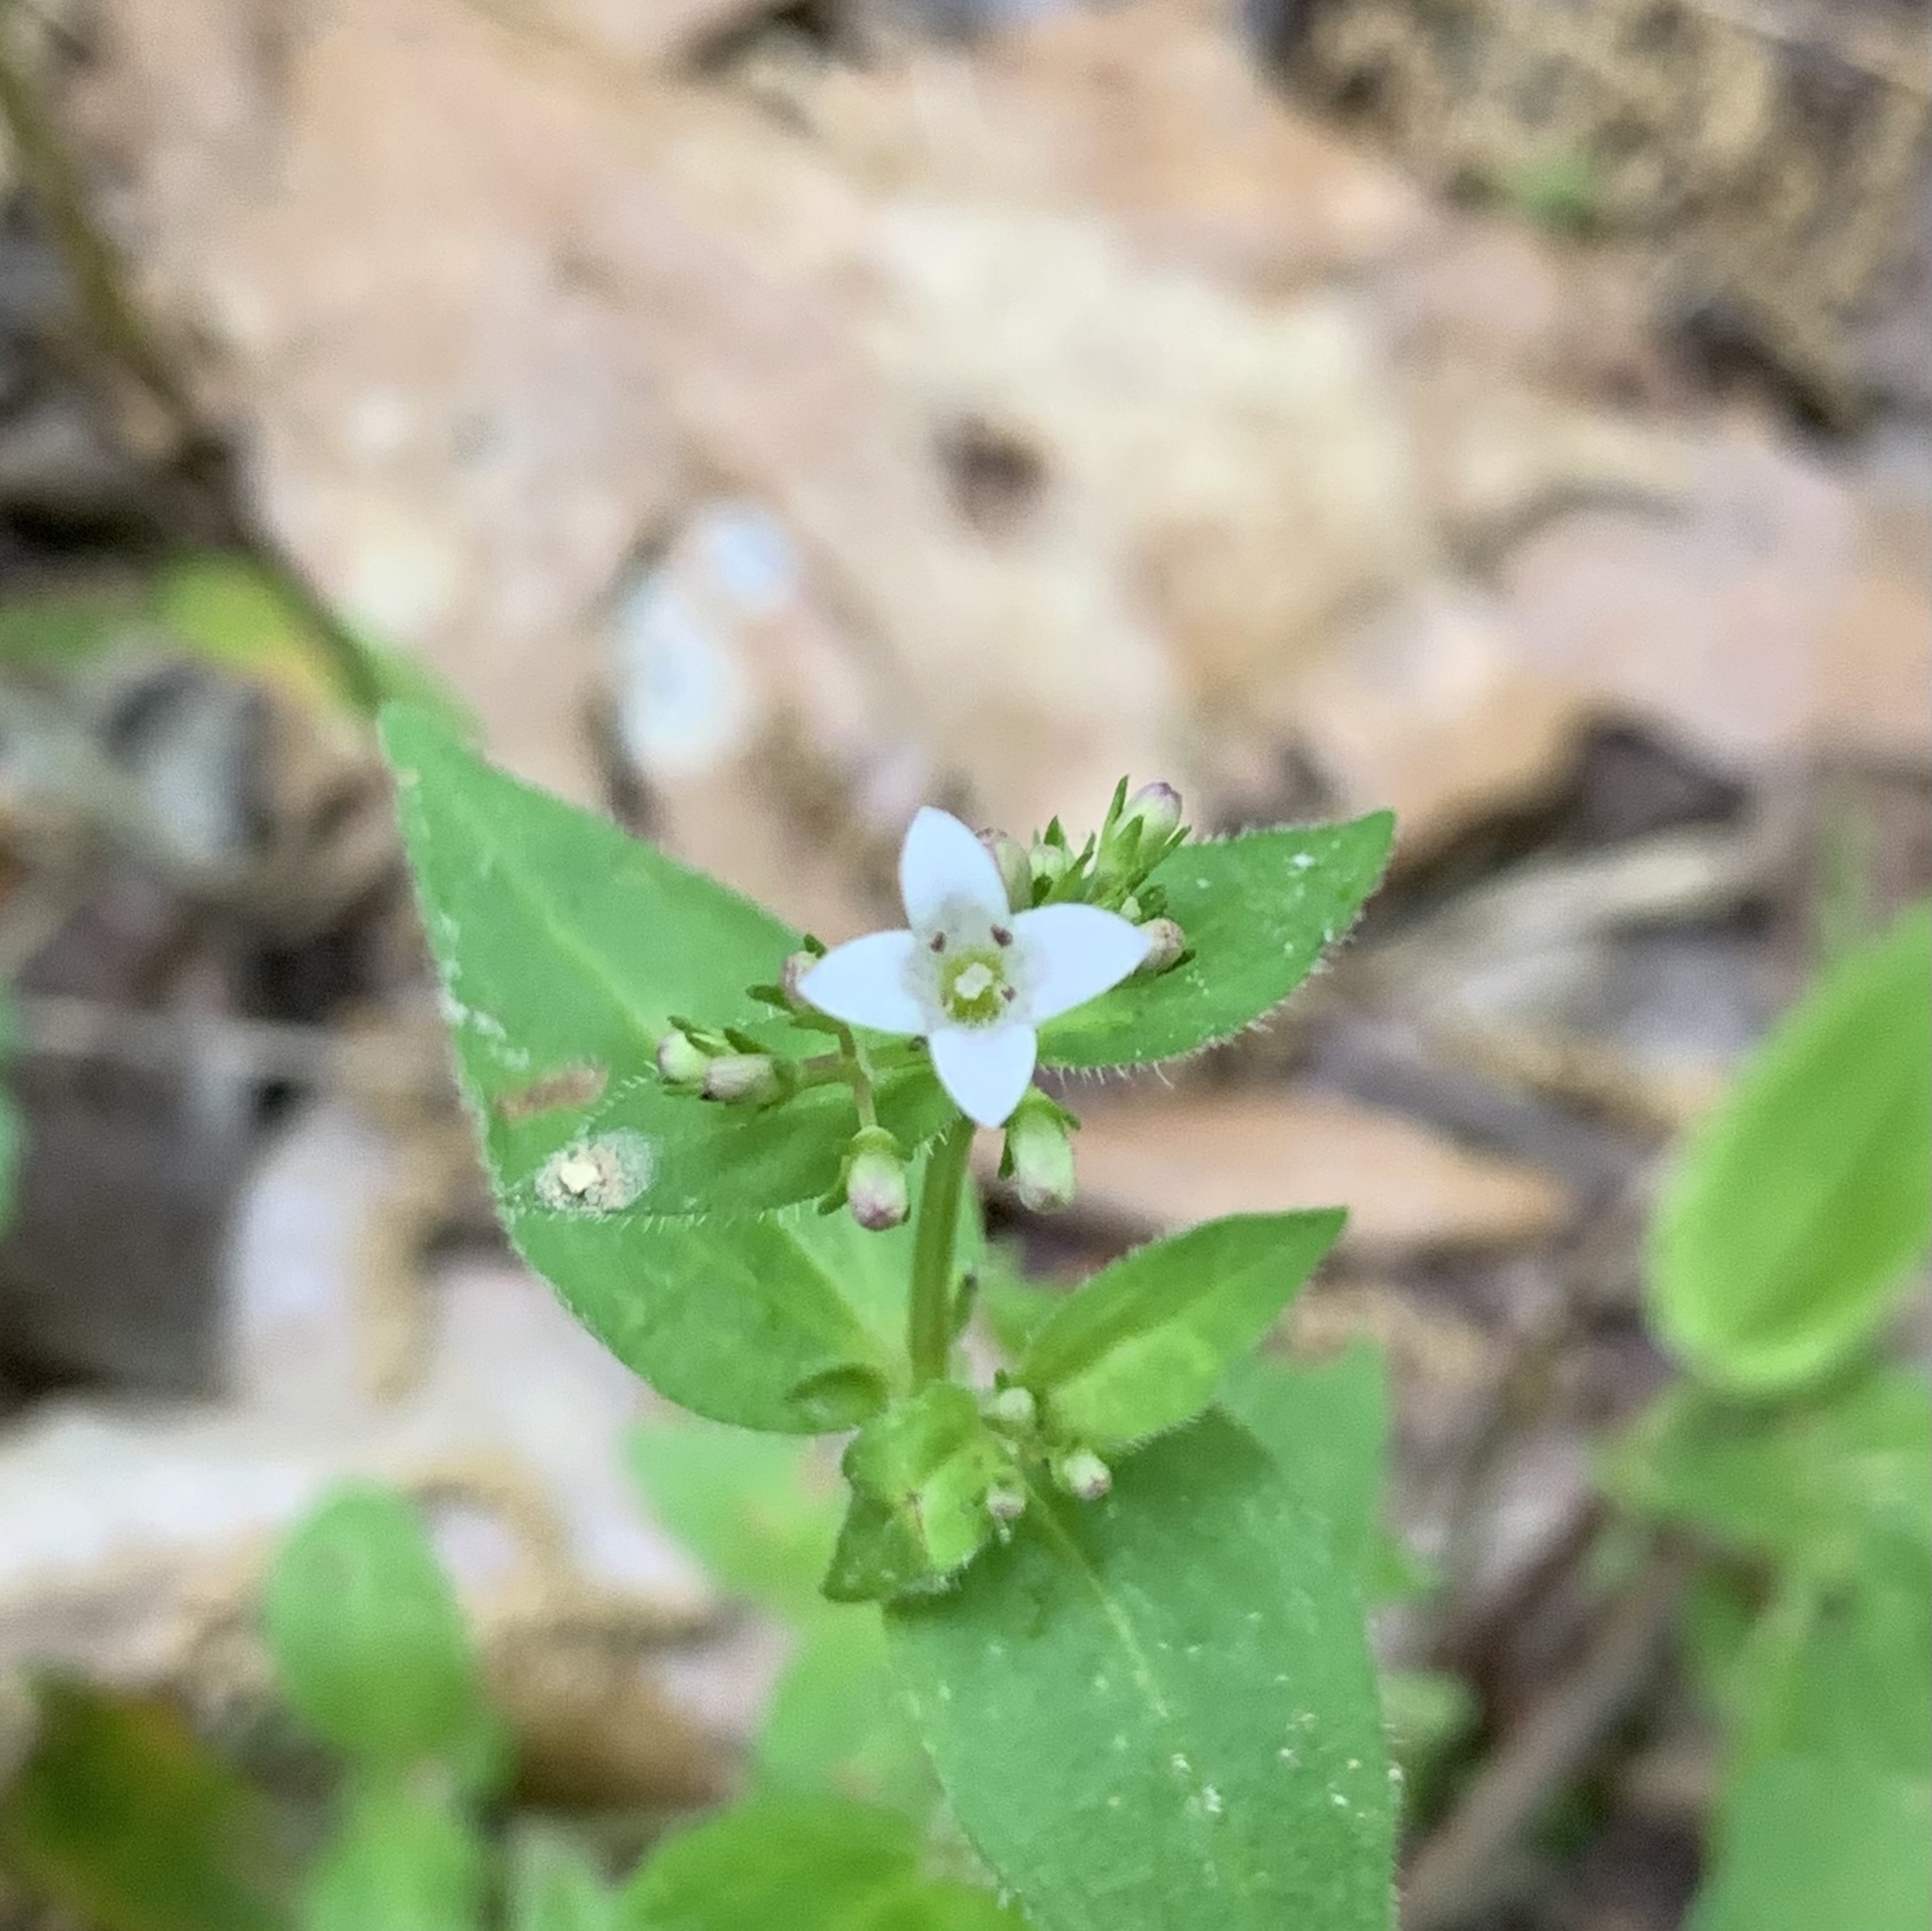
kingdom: Plantae
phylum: Tracheophyta
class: Magnoliopsida
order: Gentianales
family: Rubiaceae
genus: Houstonia
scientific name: Houstonia purpurea
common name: Summer bluet
